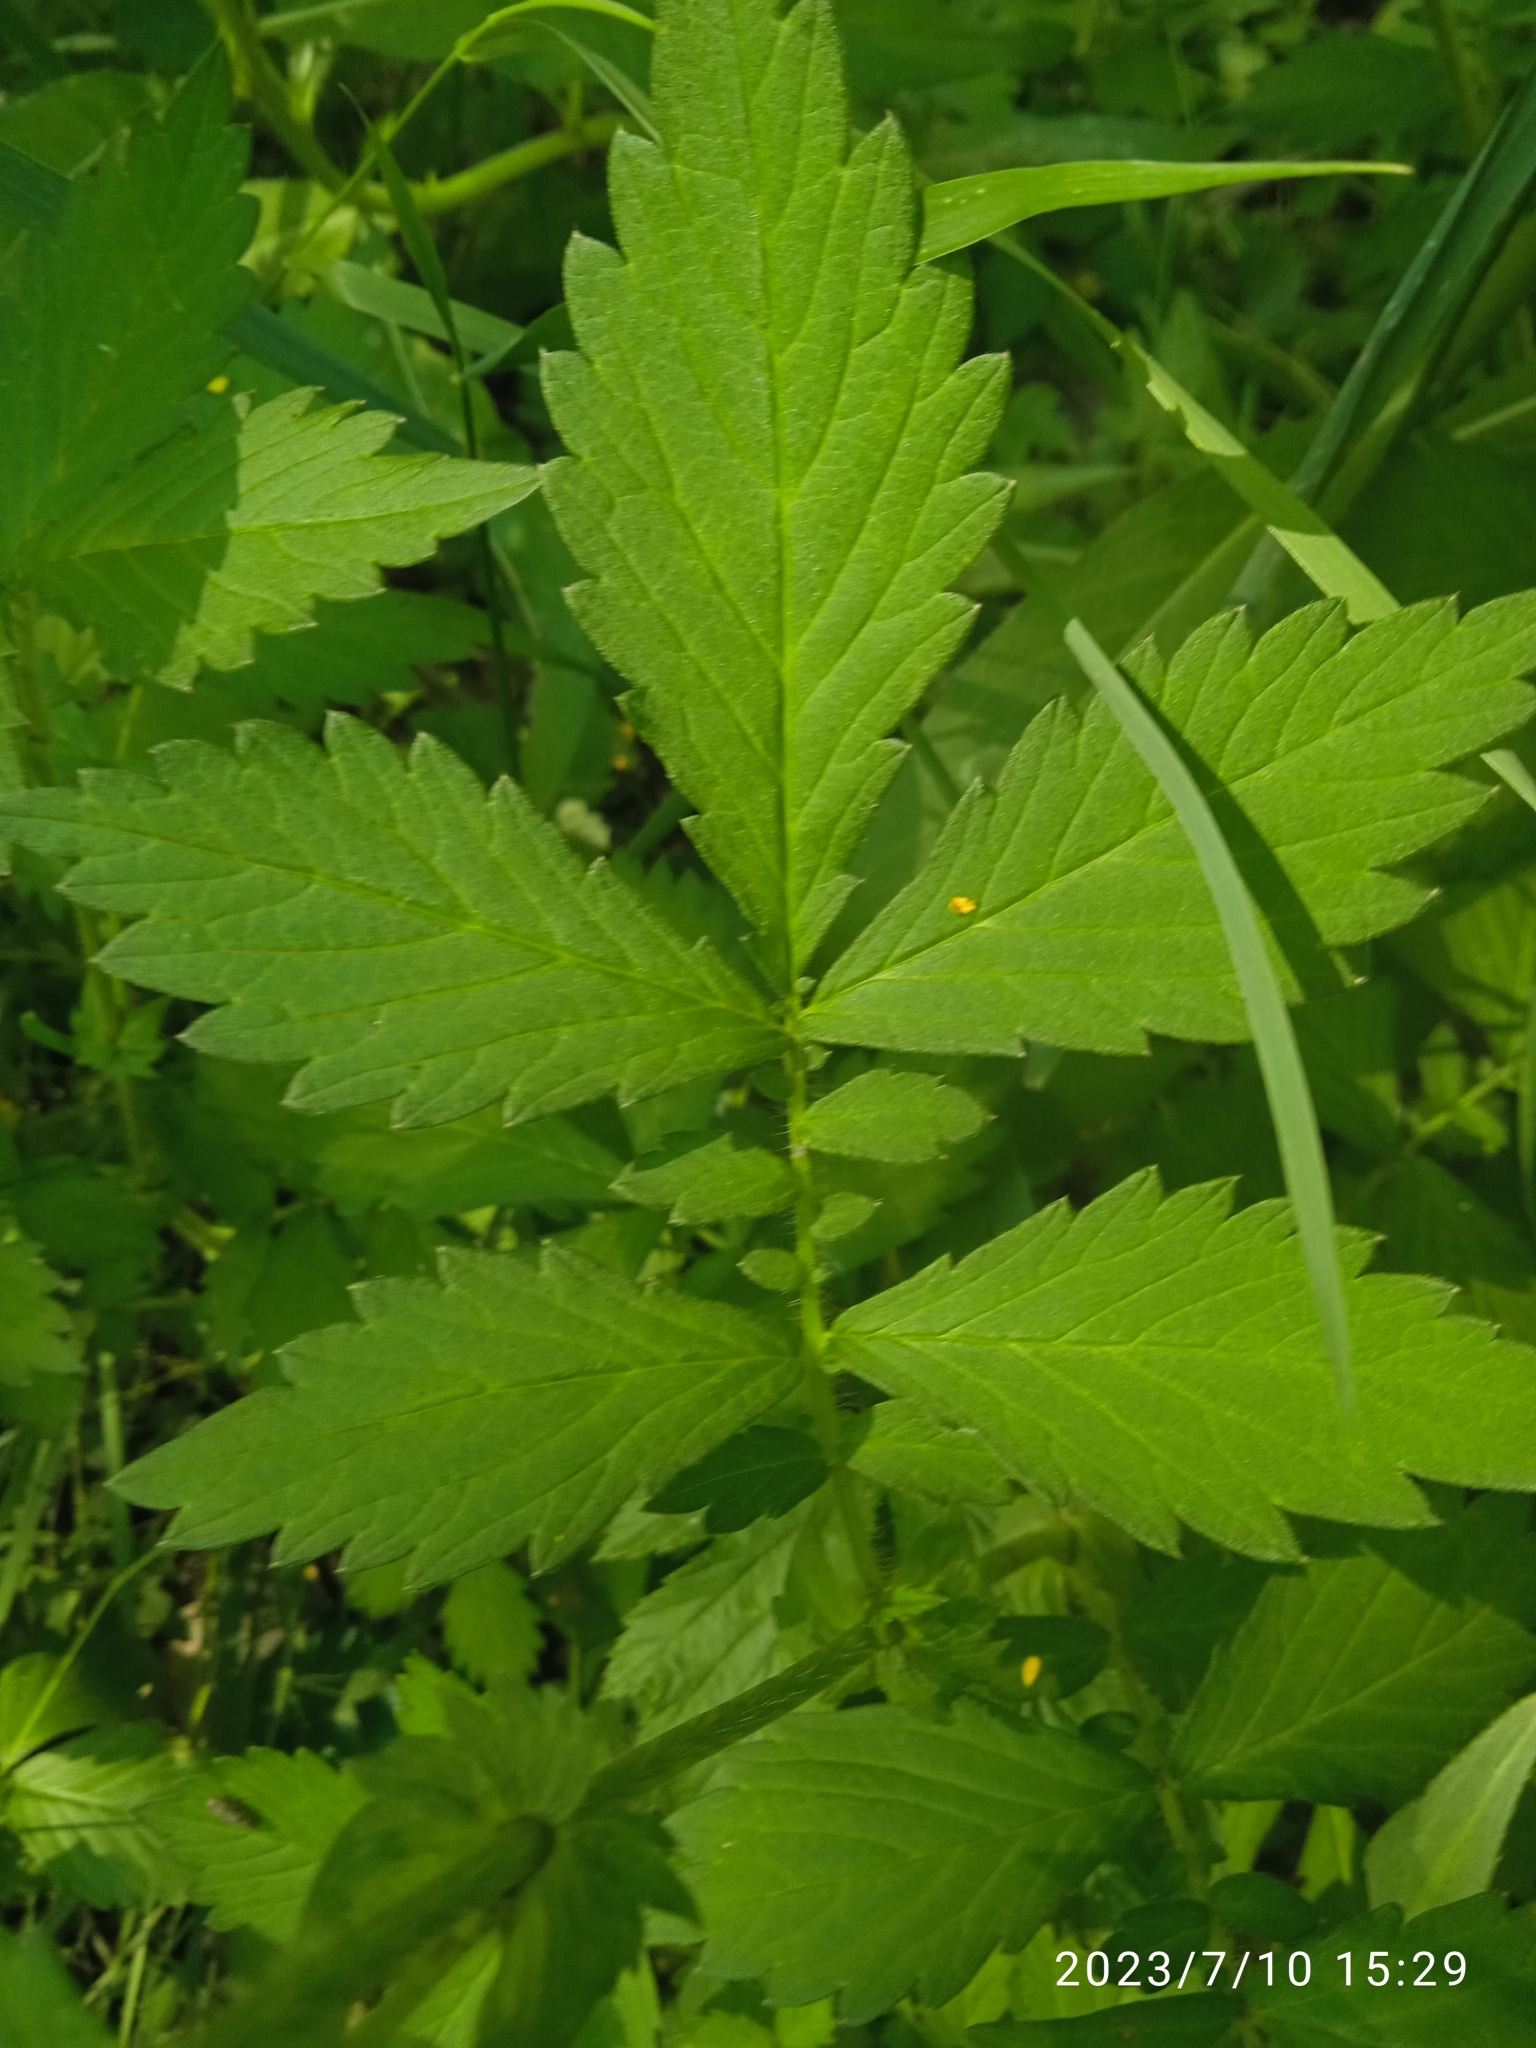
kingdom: Plantae
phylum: Tracheophyta
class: Magnoliopsida
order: Rosales
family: Rosaceae
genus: Agrimonia
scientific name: Agrimonia pilosa
